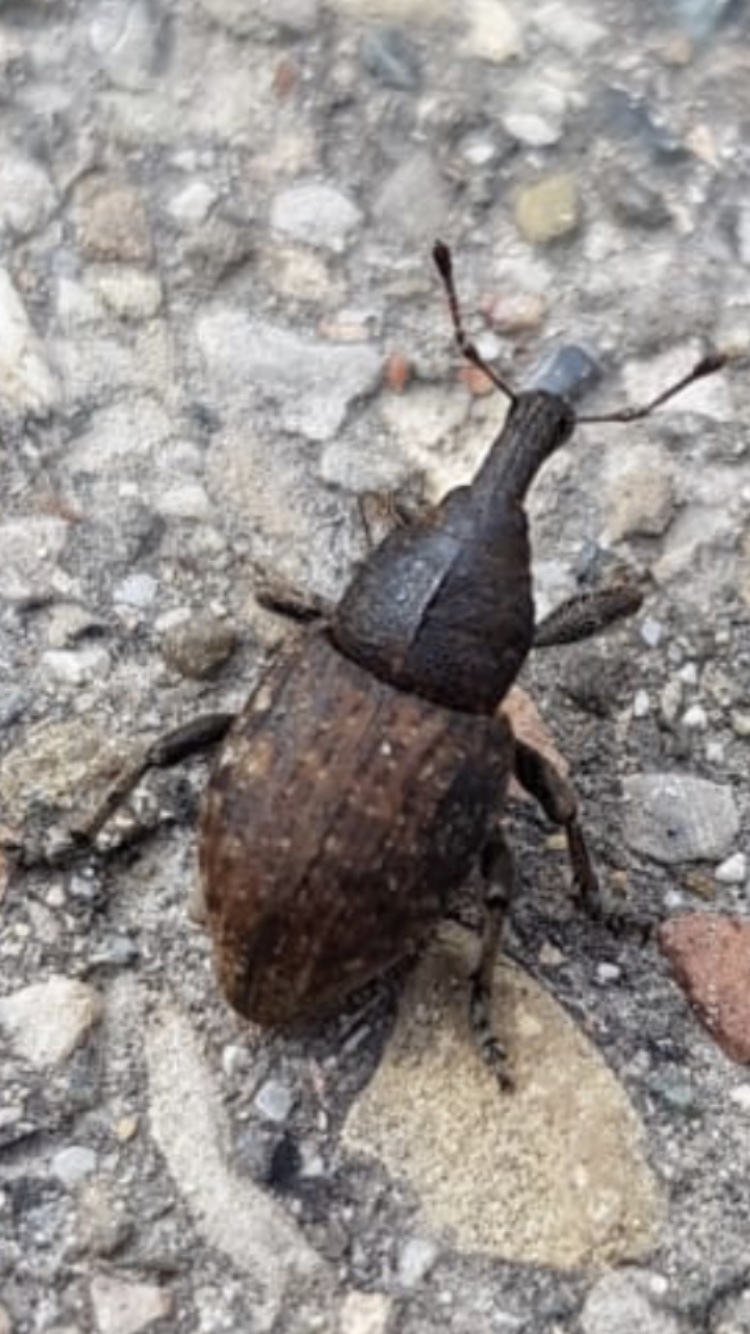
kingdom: Animalia
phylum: Arthropoda
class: Insecta
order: Coleoptera
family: Curculionidae
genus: Lepyrus
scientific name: Lepyrus capucinus
